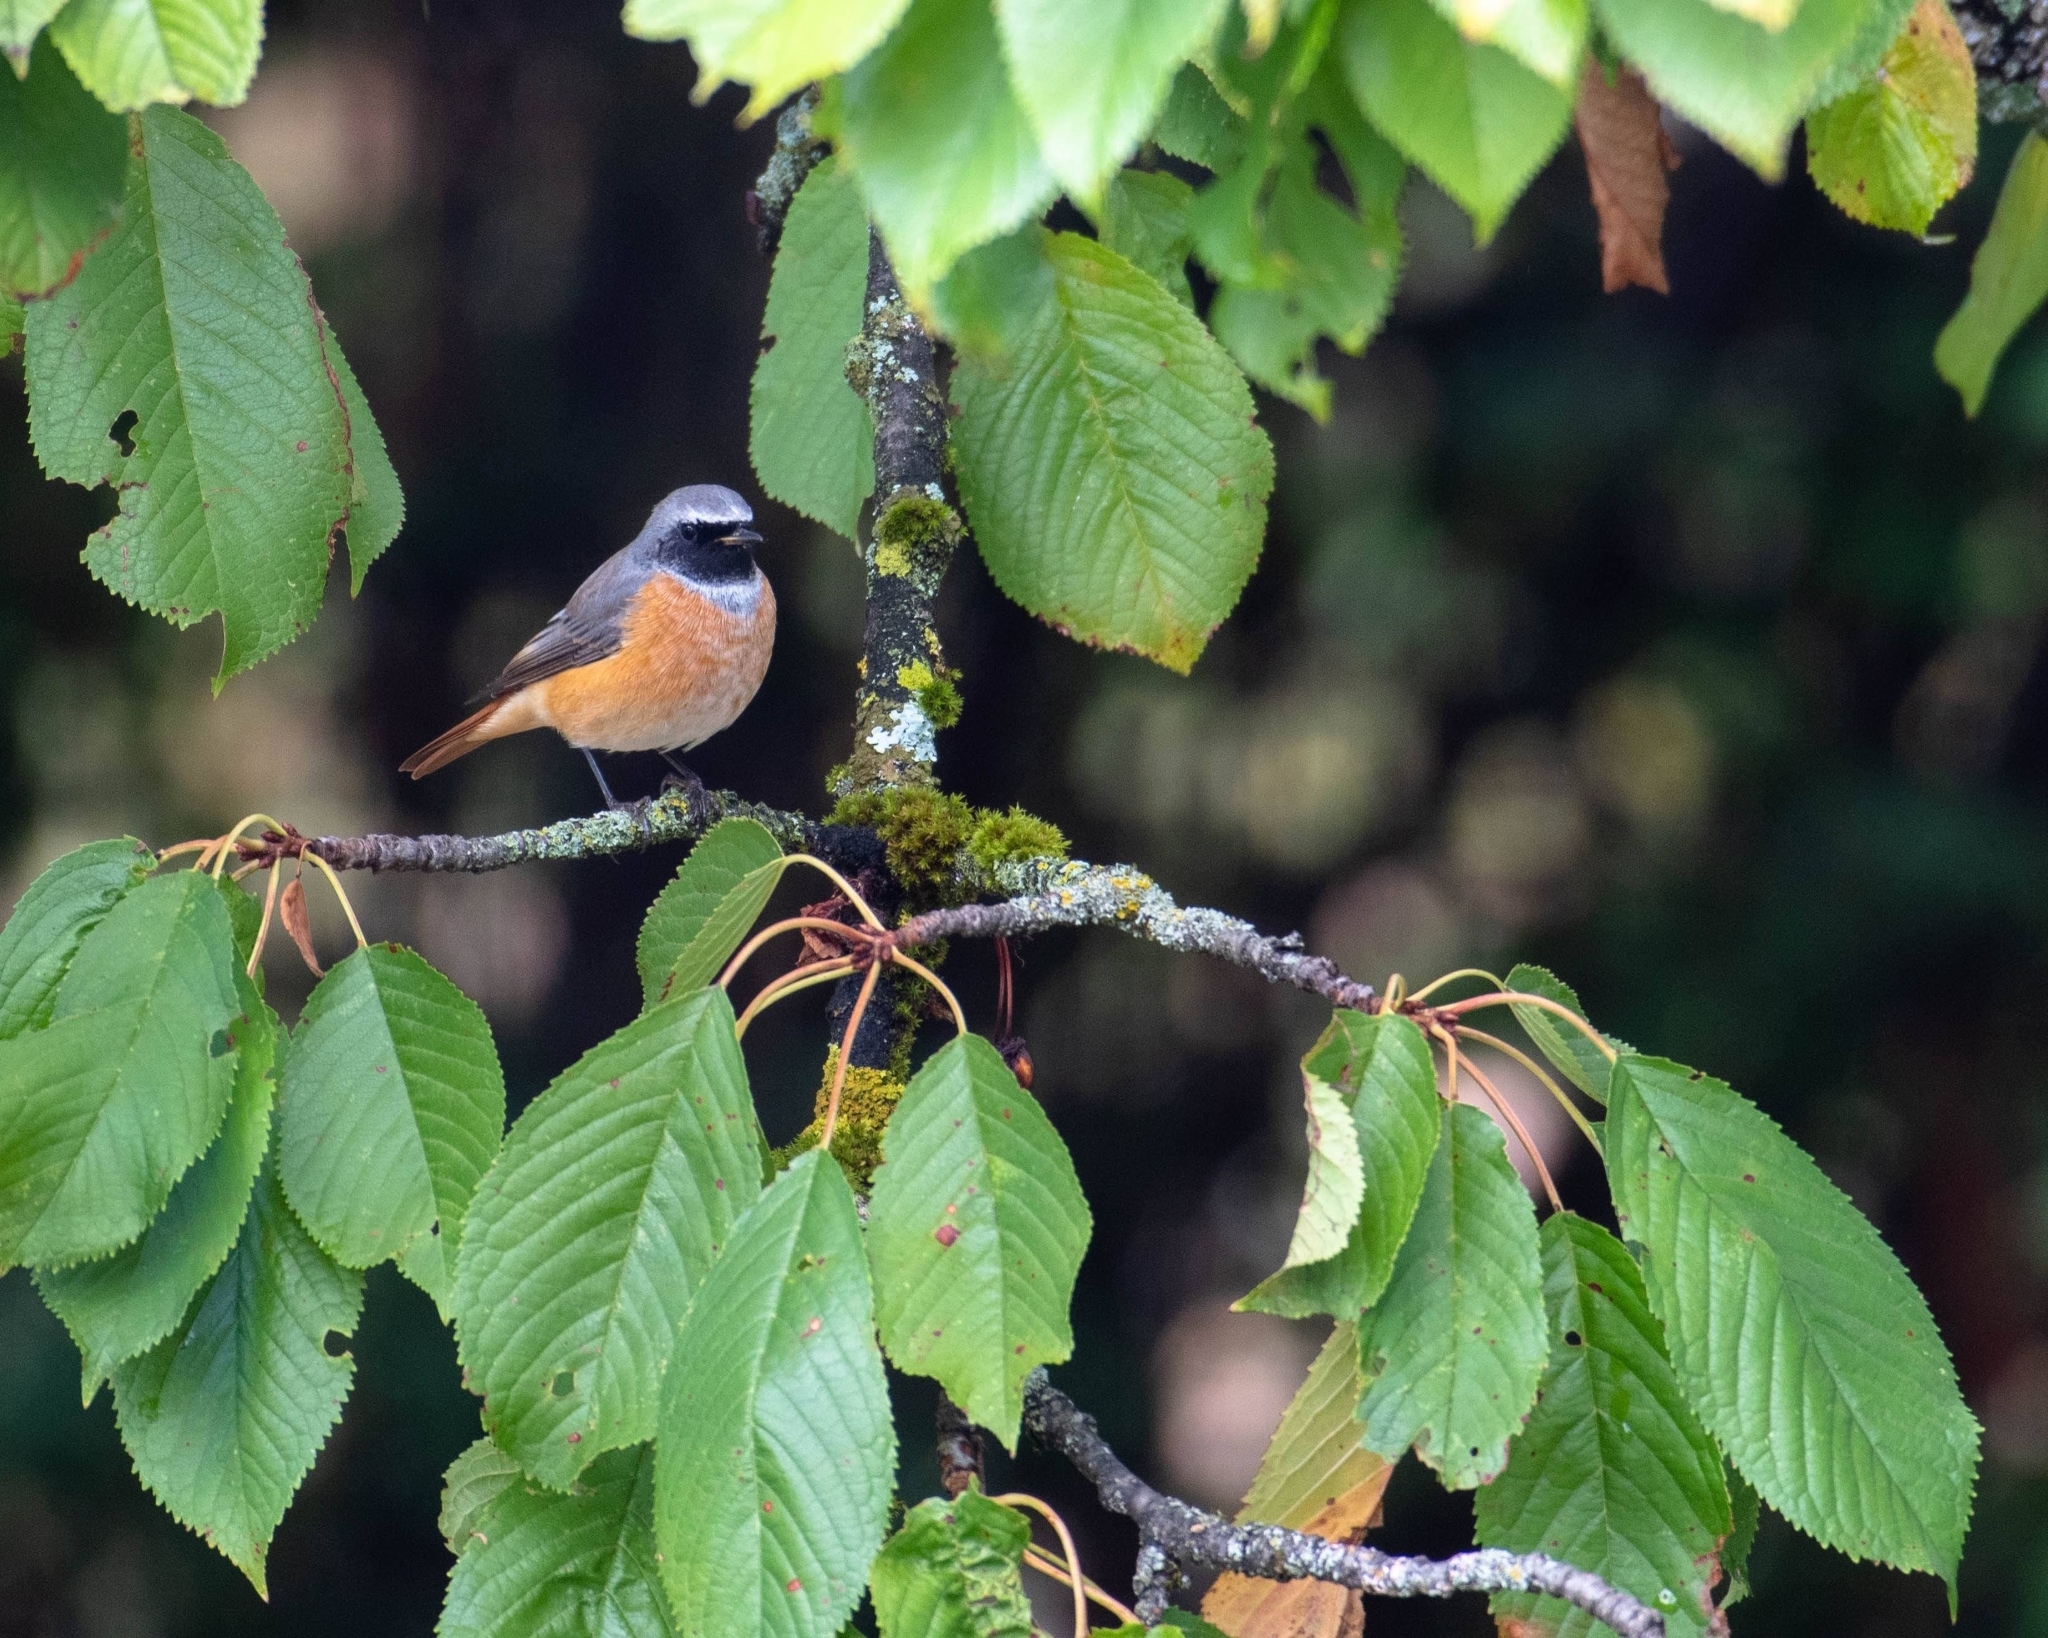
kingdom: Animalia
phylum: Chordata
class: Aves
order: Passeriformes
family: Muscicapidae
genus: Phoenicurus
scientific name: Phoenicurus phoenicurus
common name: Common redstart
